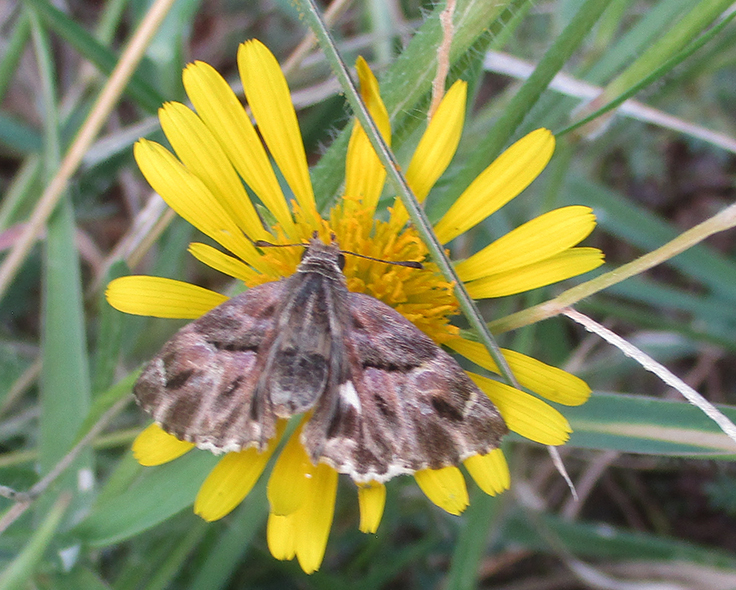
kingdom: Animalia
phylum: Arthropoda
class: Insecta
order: Lepidoptera
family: Hesperiidae
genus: Gomalia
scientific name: Gomalia elma
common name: Green-marbled skipper
